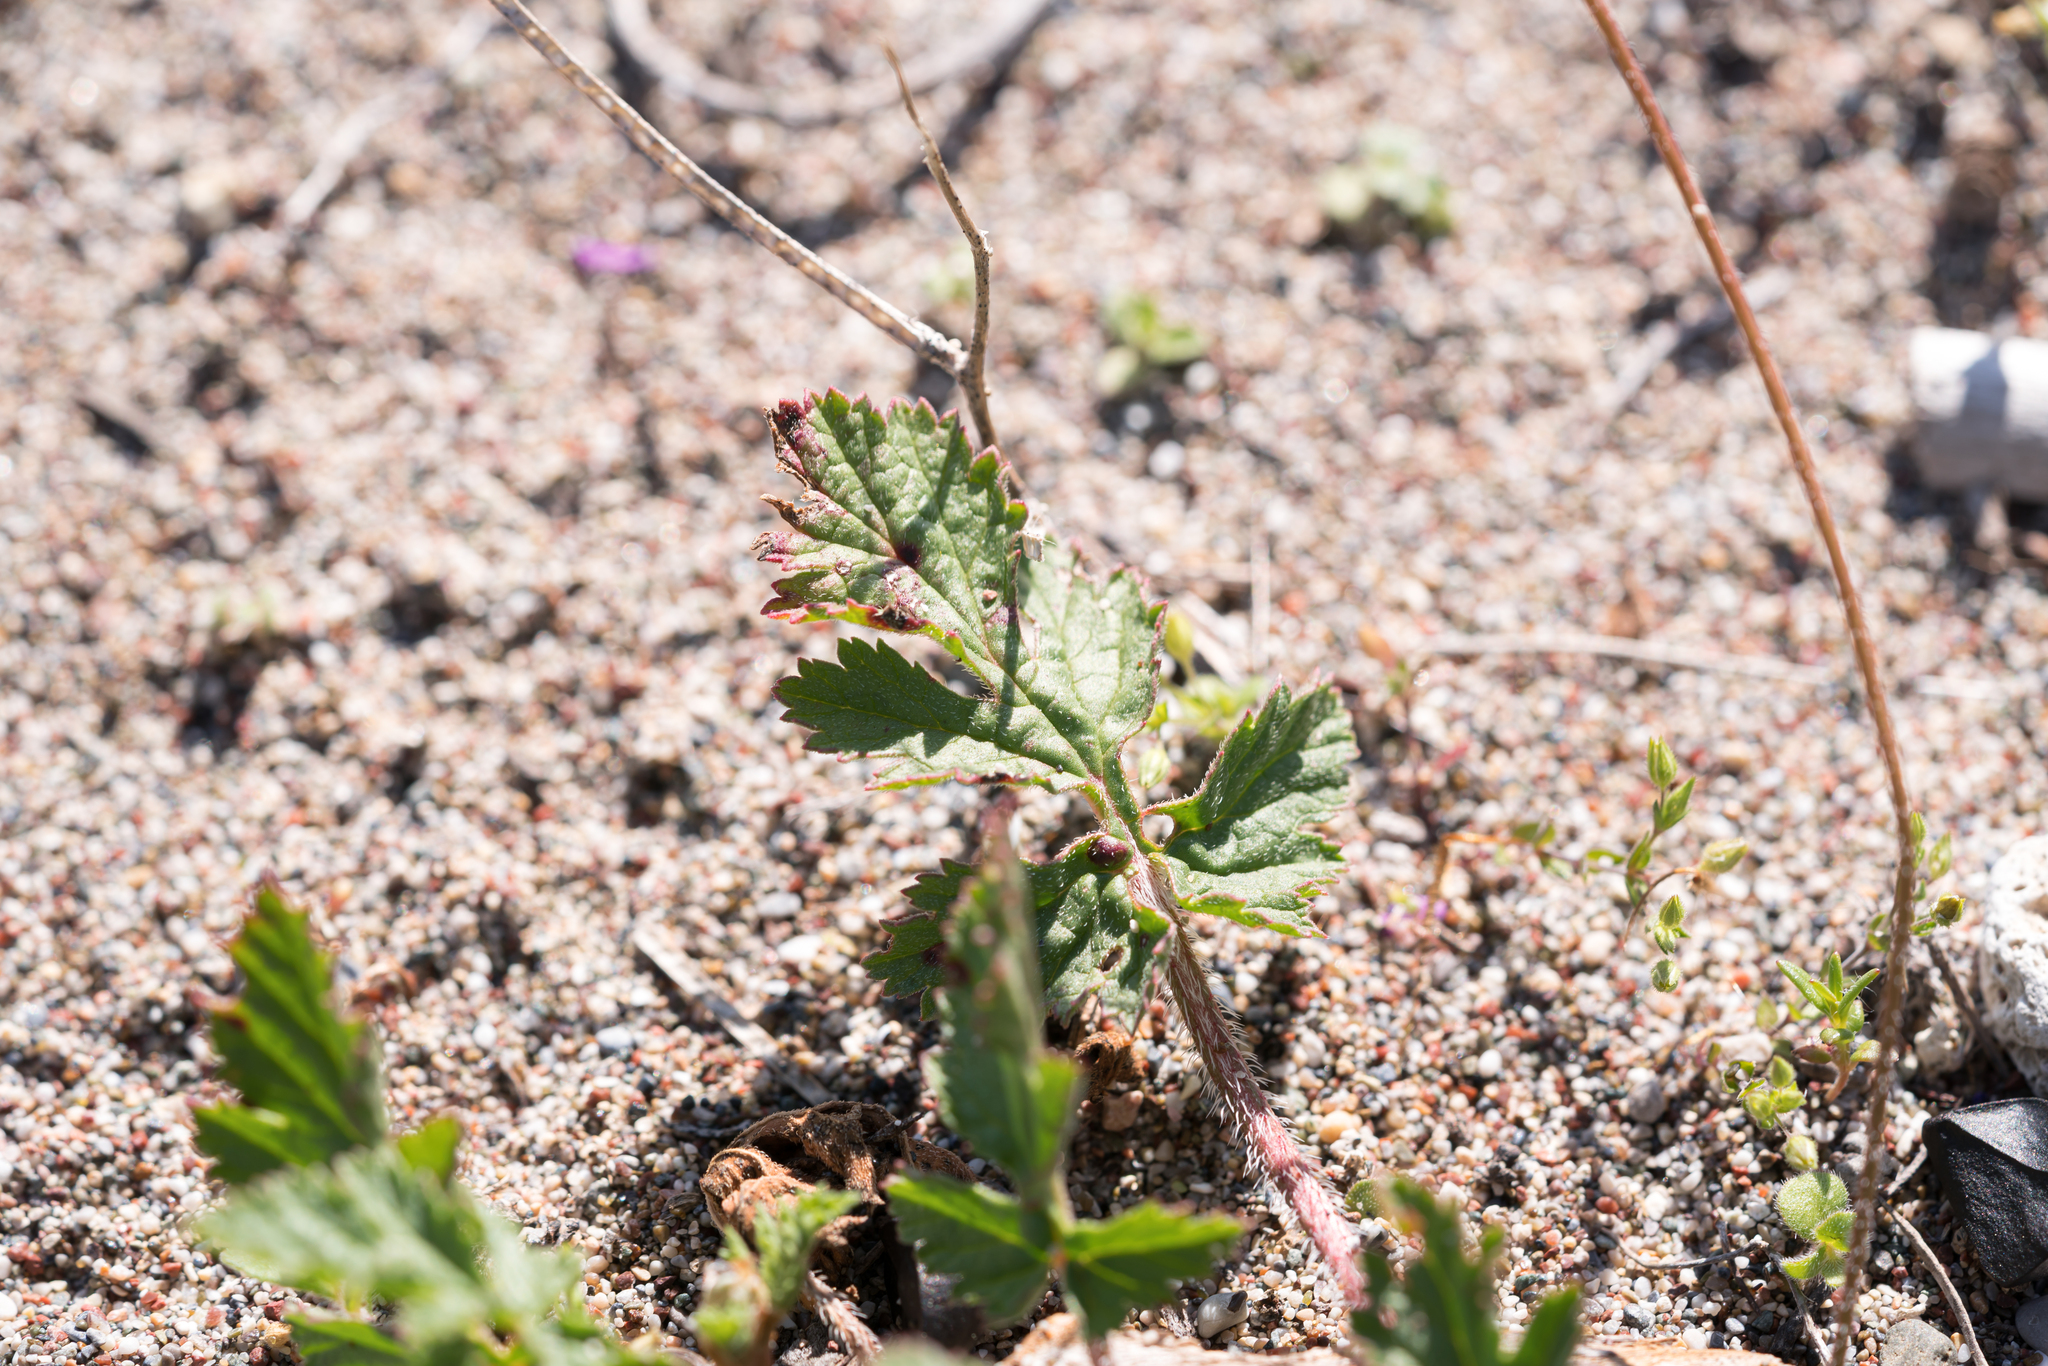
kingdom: Plantae
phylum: Tracheophyta
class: Magnoliopsida
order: Geraniales
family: Geraniaceae
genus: Erodium
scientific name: Erodium laciniatum
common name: Cutleaf stork's bill
